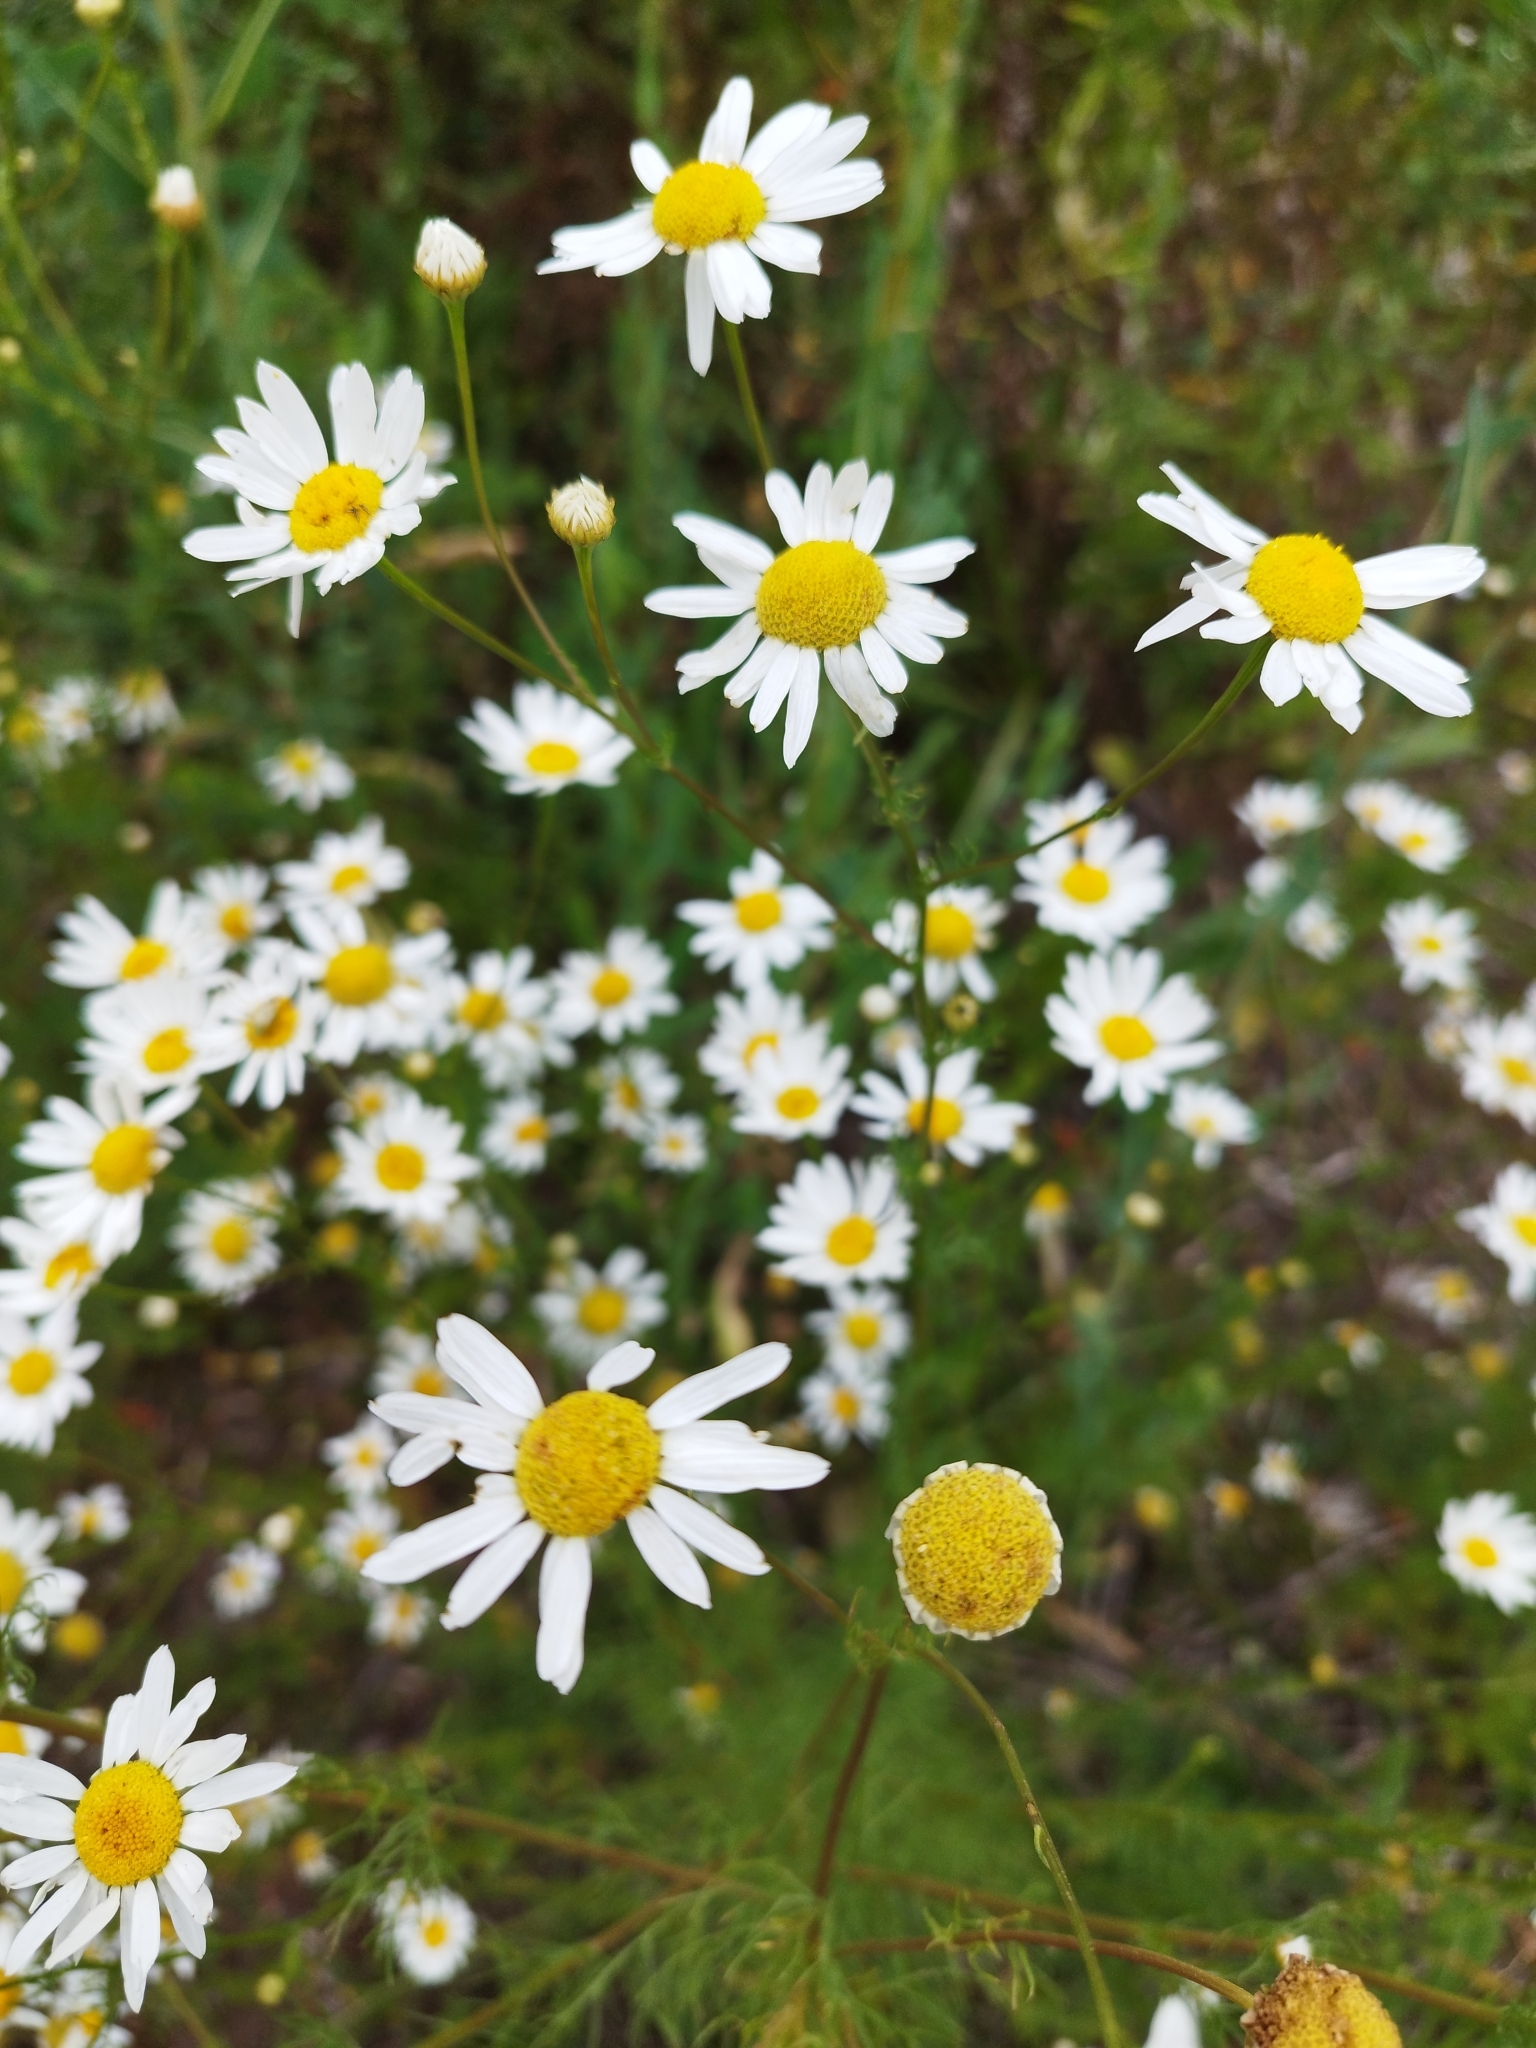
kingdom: Plantae
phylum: Tracheophyta
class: Magnoliopsida
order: Asterales
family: Asteraceae
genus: Tripleurospermum
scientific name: Tripleurospermum inodorum
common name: Scentless mayweed
